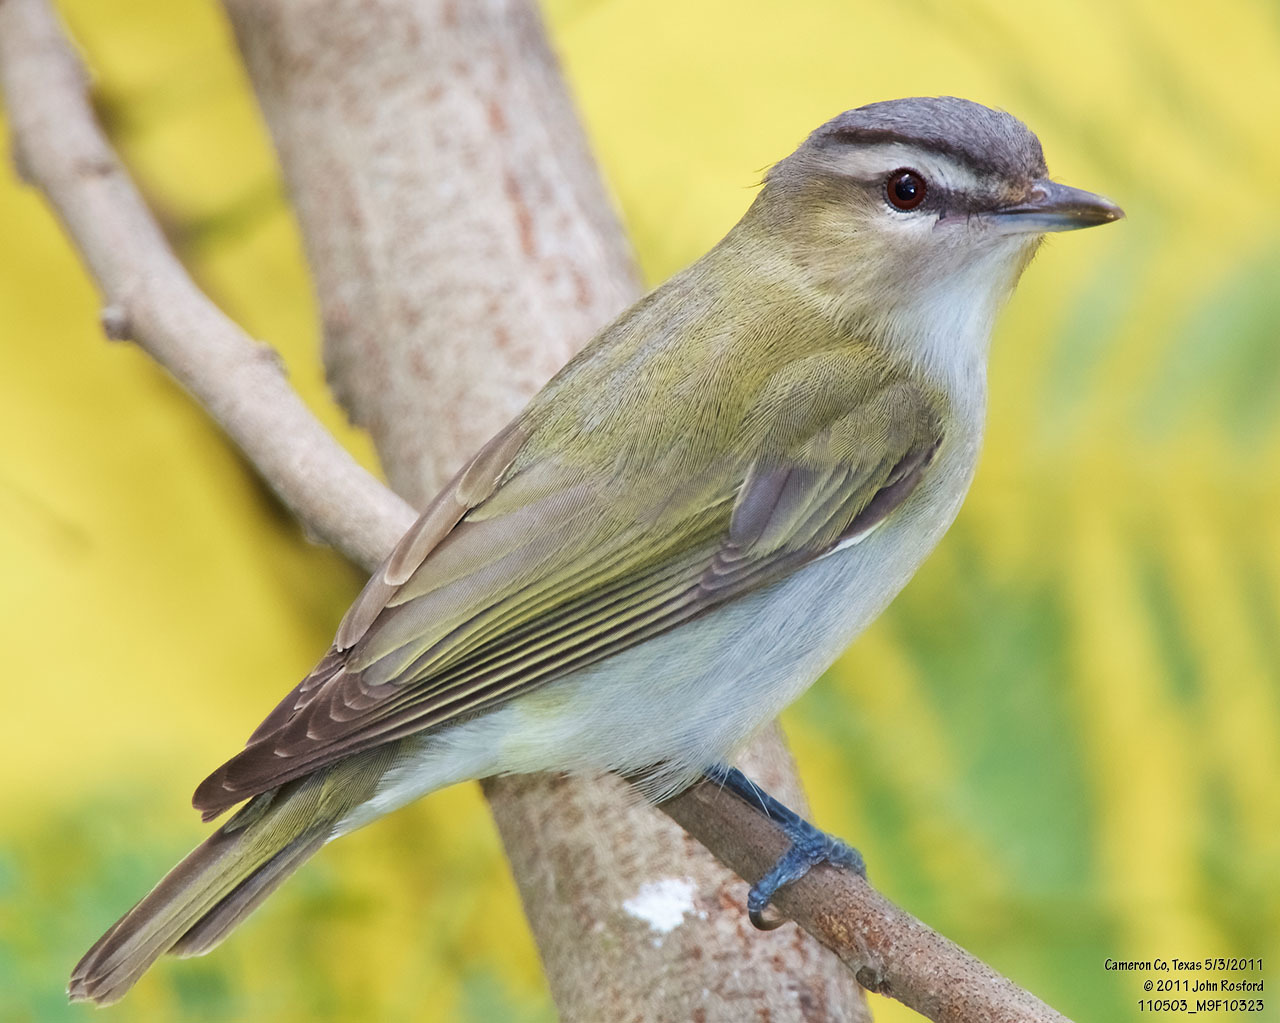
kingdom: Animalia
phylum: Chordata
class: Aves
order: Passeriformes
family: Vireonidae
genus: Vireo
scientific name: Vireo olivaceus
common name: Red-eyed vireo
